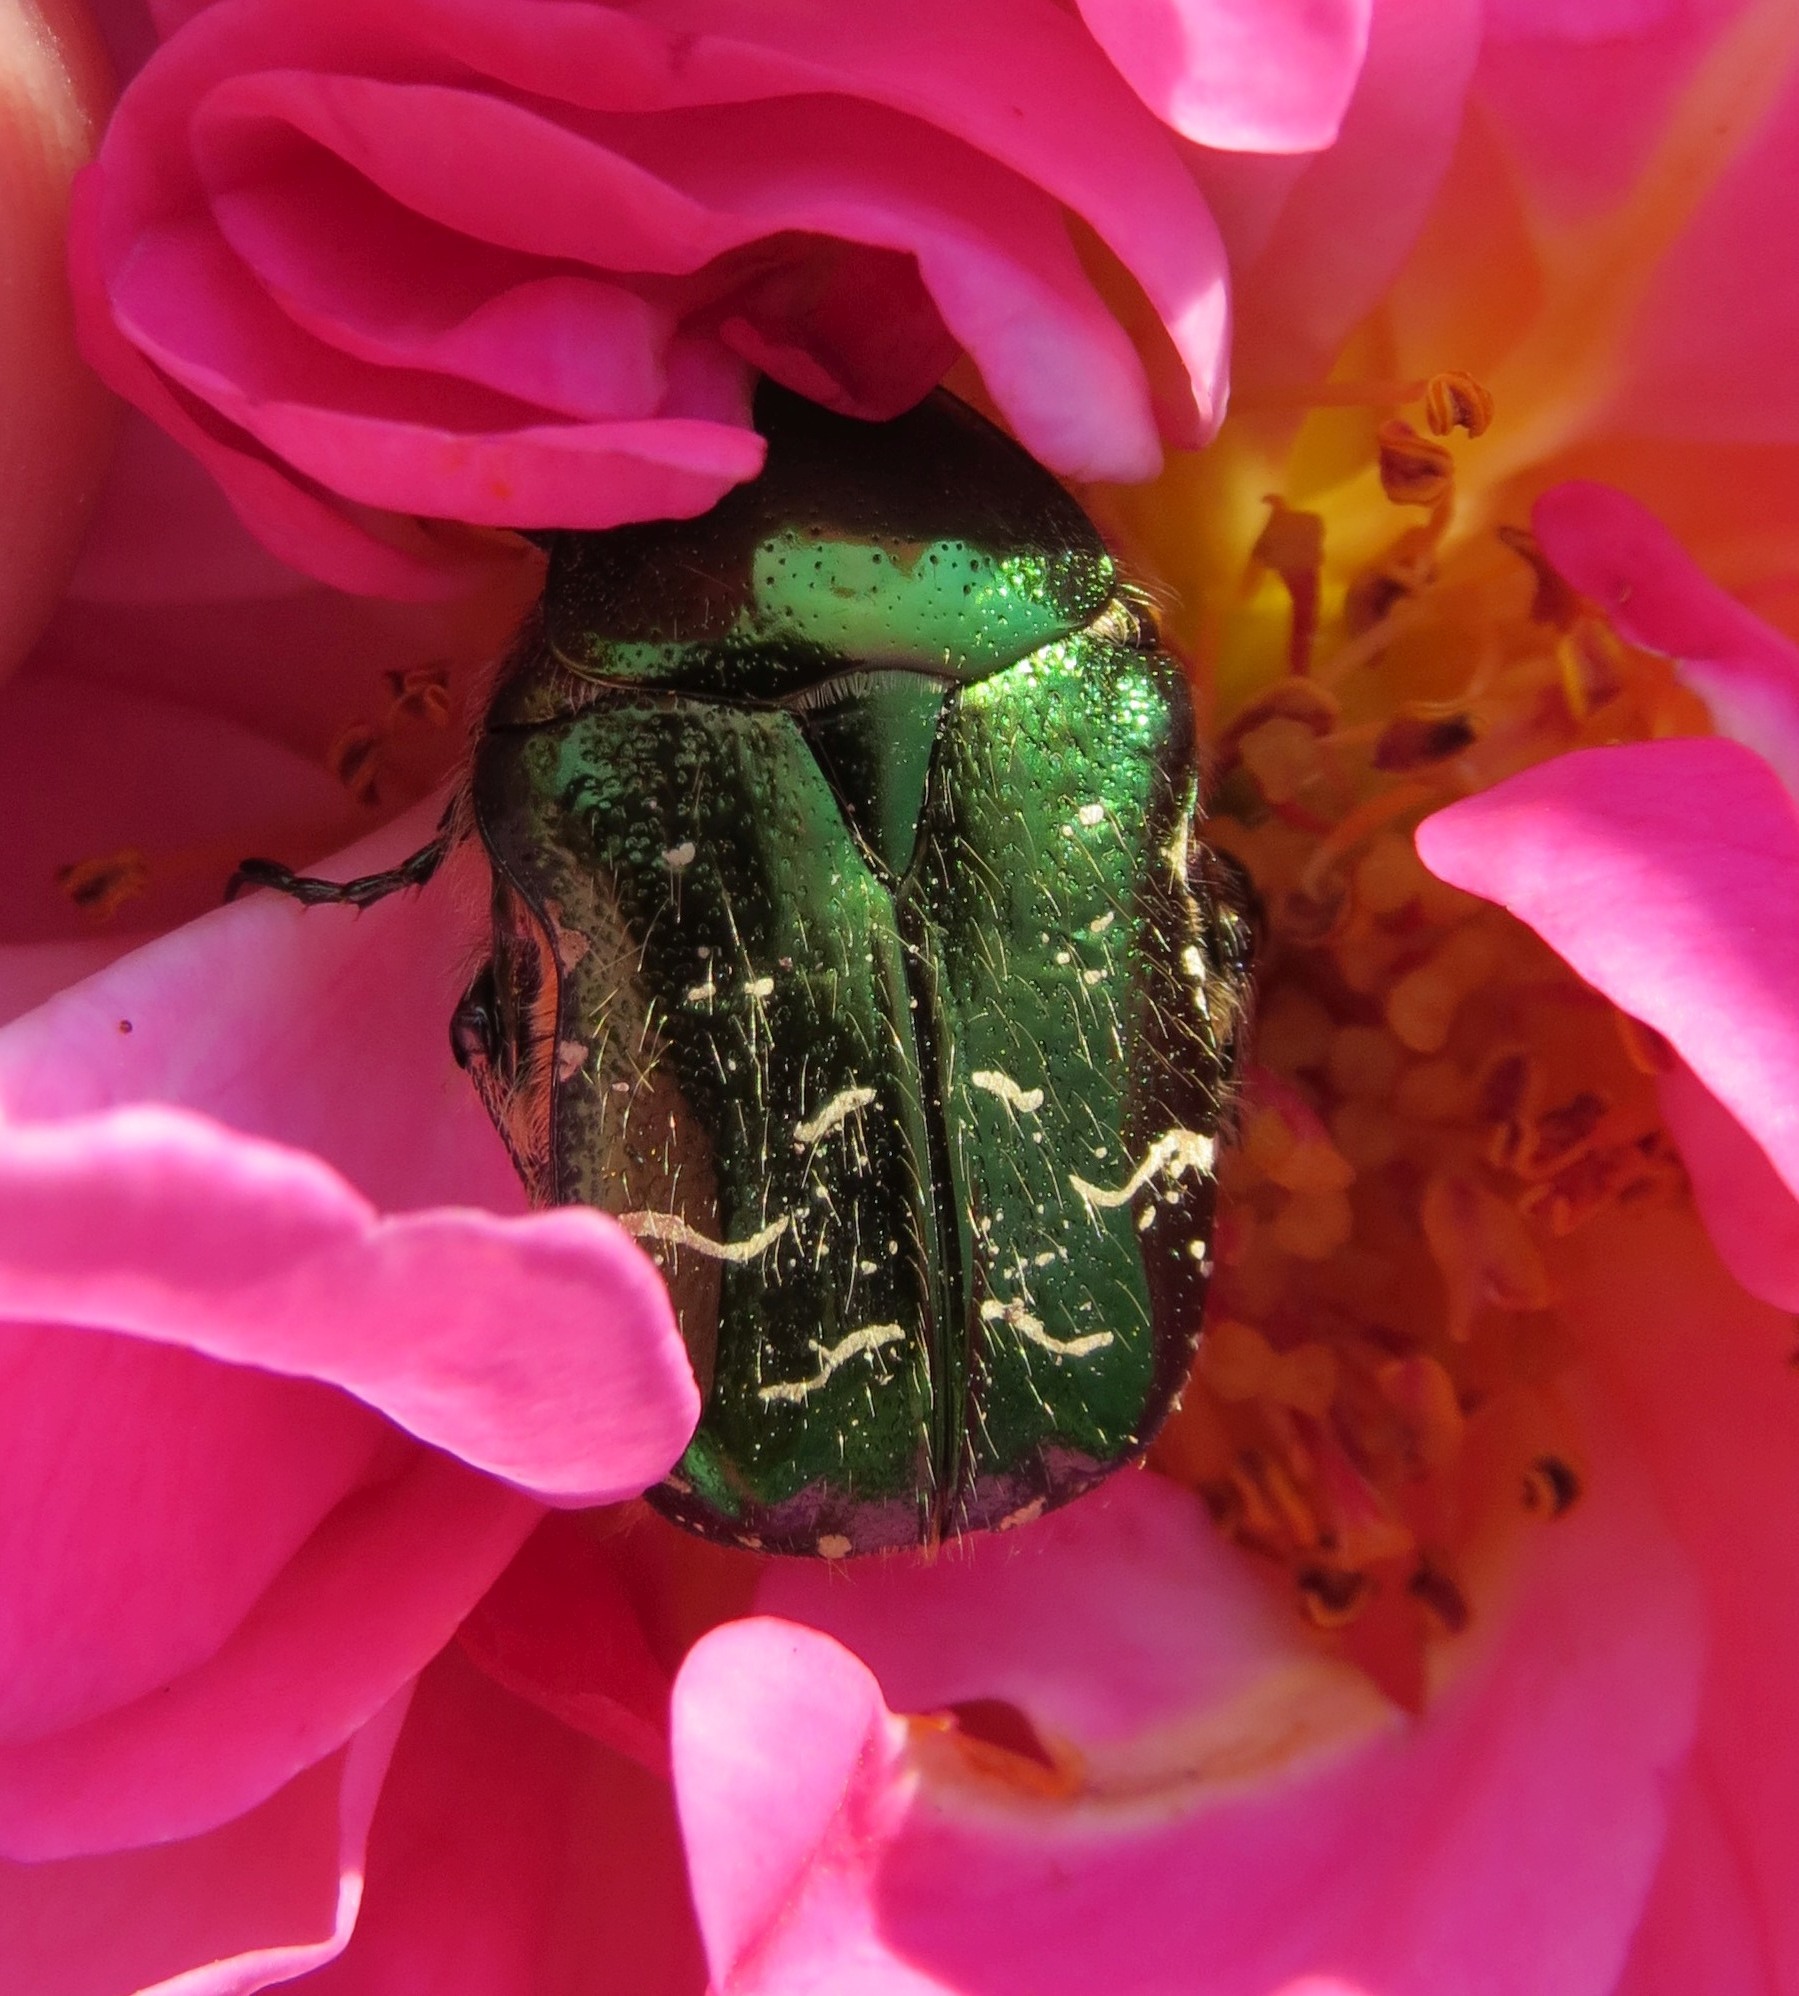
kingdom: Animalia
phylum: Arthropoda
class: Insecta
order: Coleoptera
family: Scarabaeidae
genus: Cetonia
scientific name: Cetonia aurata
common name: Rose chafer
